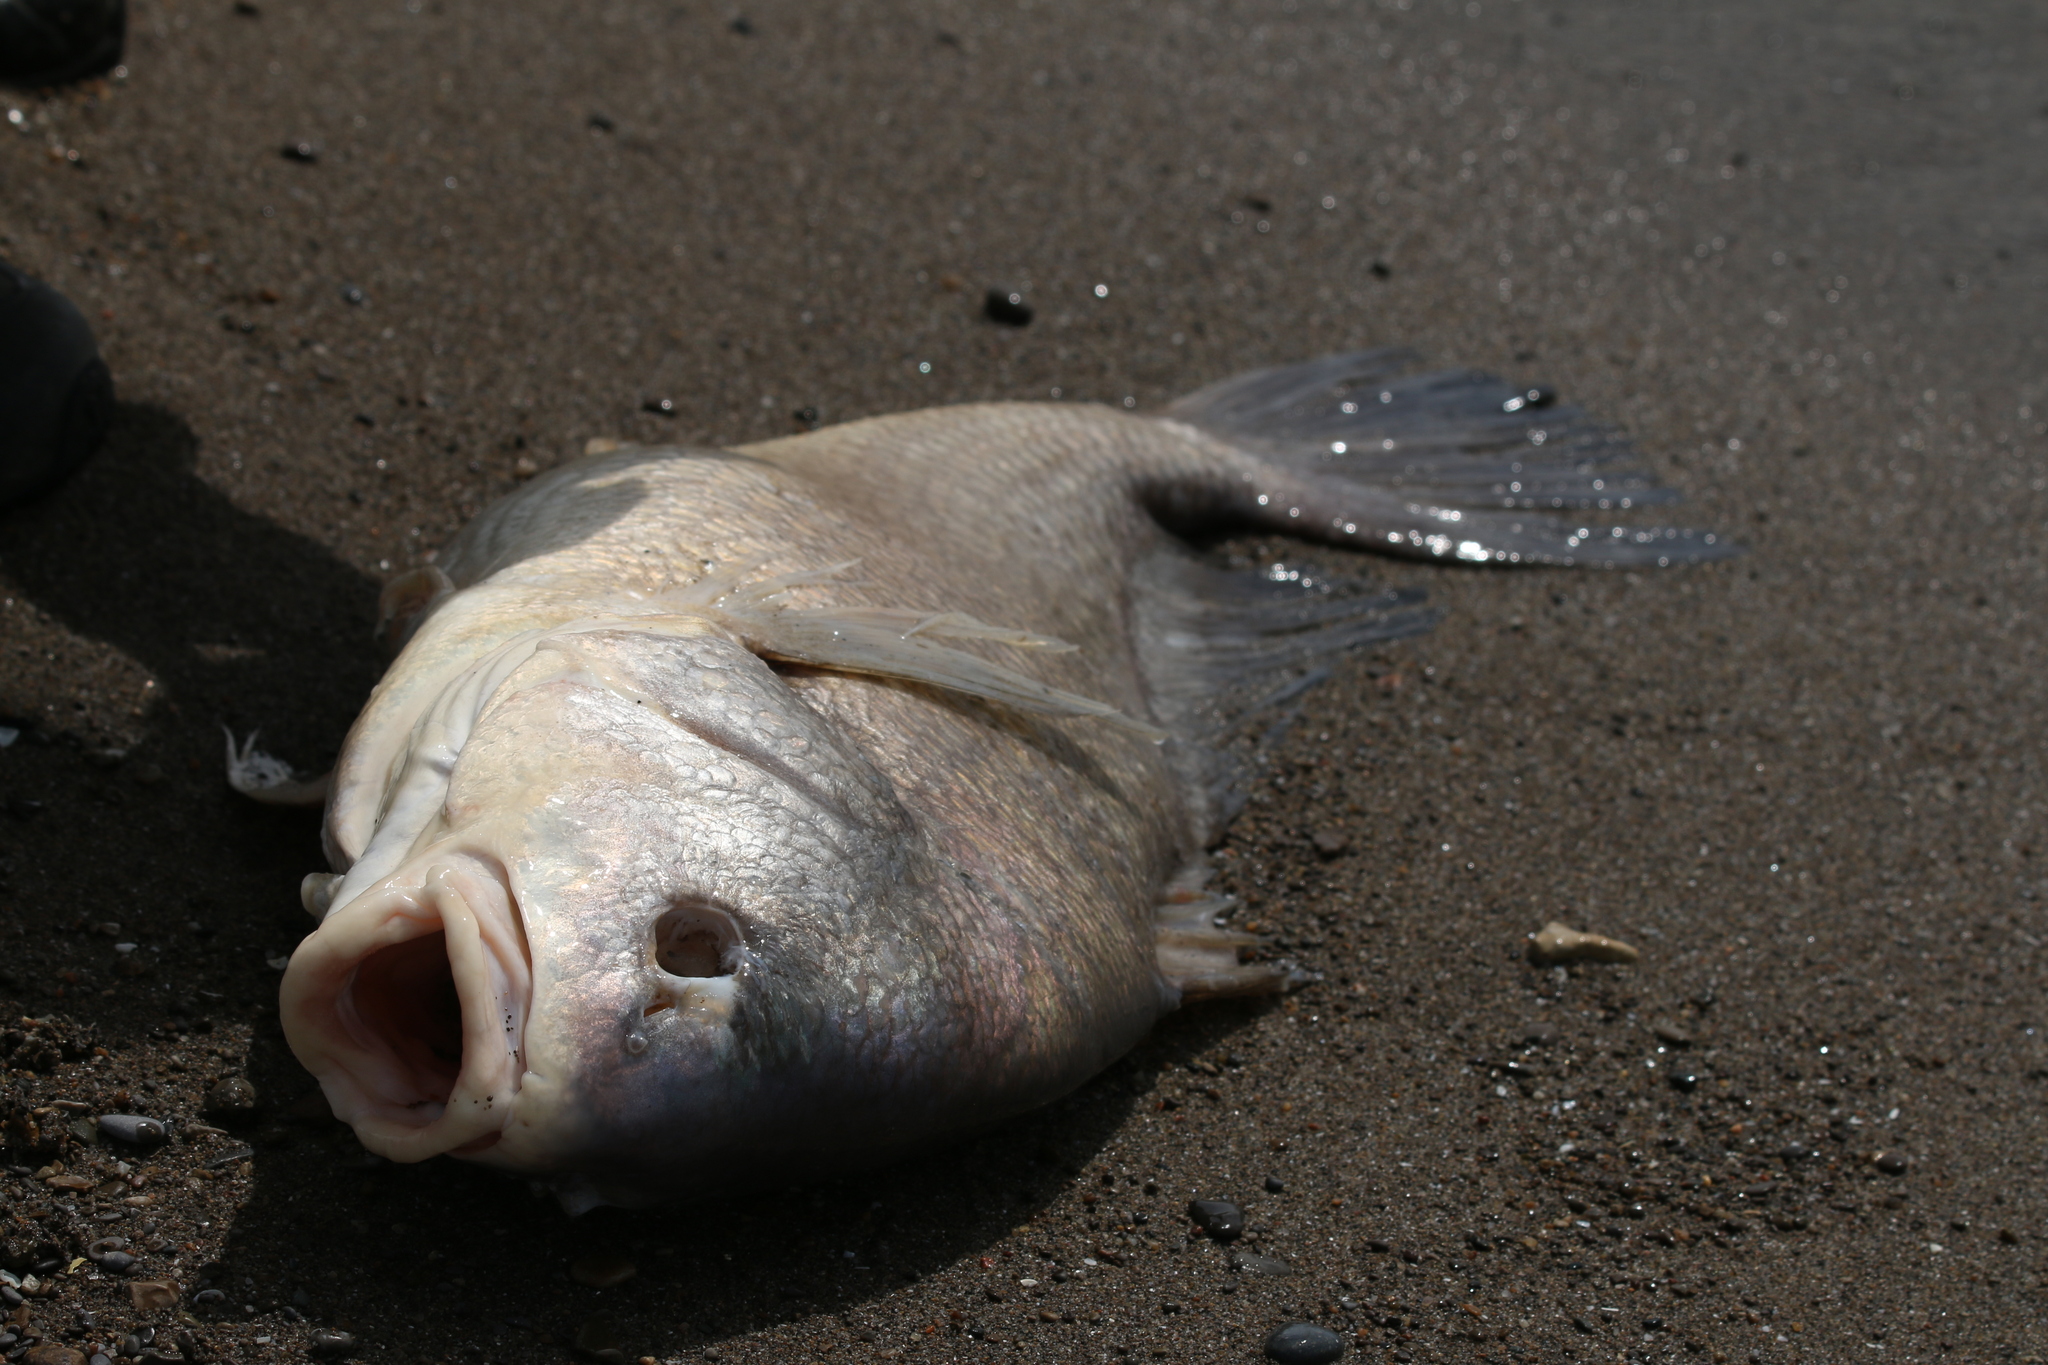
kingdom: Animalia
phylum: Chordata
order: Perciformes
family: Sciaenidae
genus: Aplodinotus
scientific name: Aplodinotus grunniens
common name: Freshwater drum
